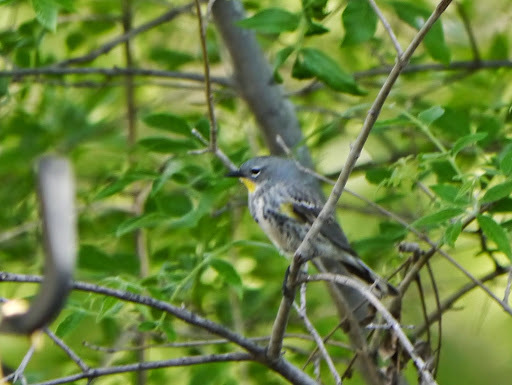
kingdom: Animalia
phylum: Chordata
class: Aves
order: Passeriformes
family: Parulidae
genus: Setophaga
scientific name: Setophaga coronata
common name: Myrtle warbler
